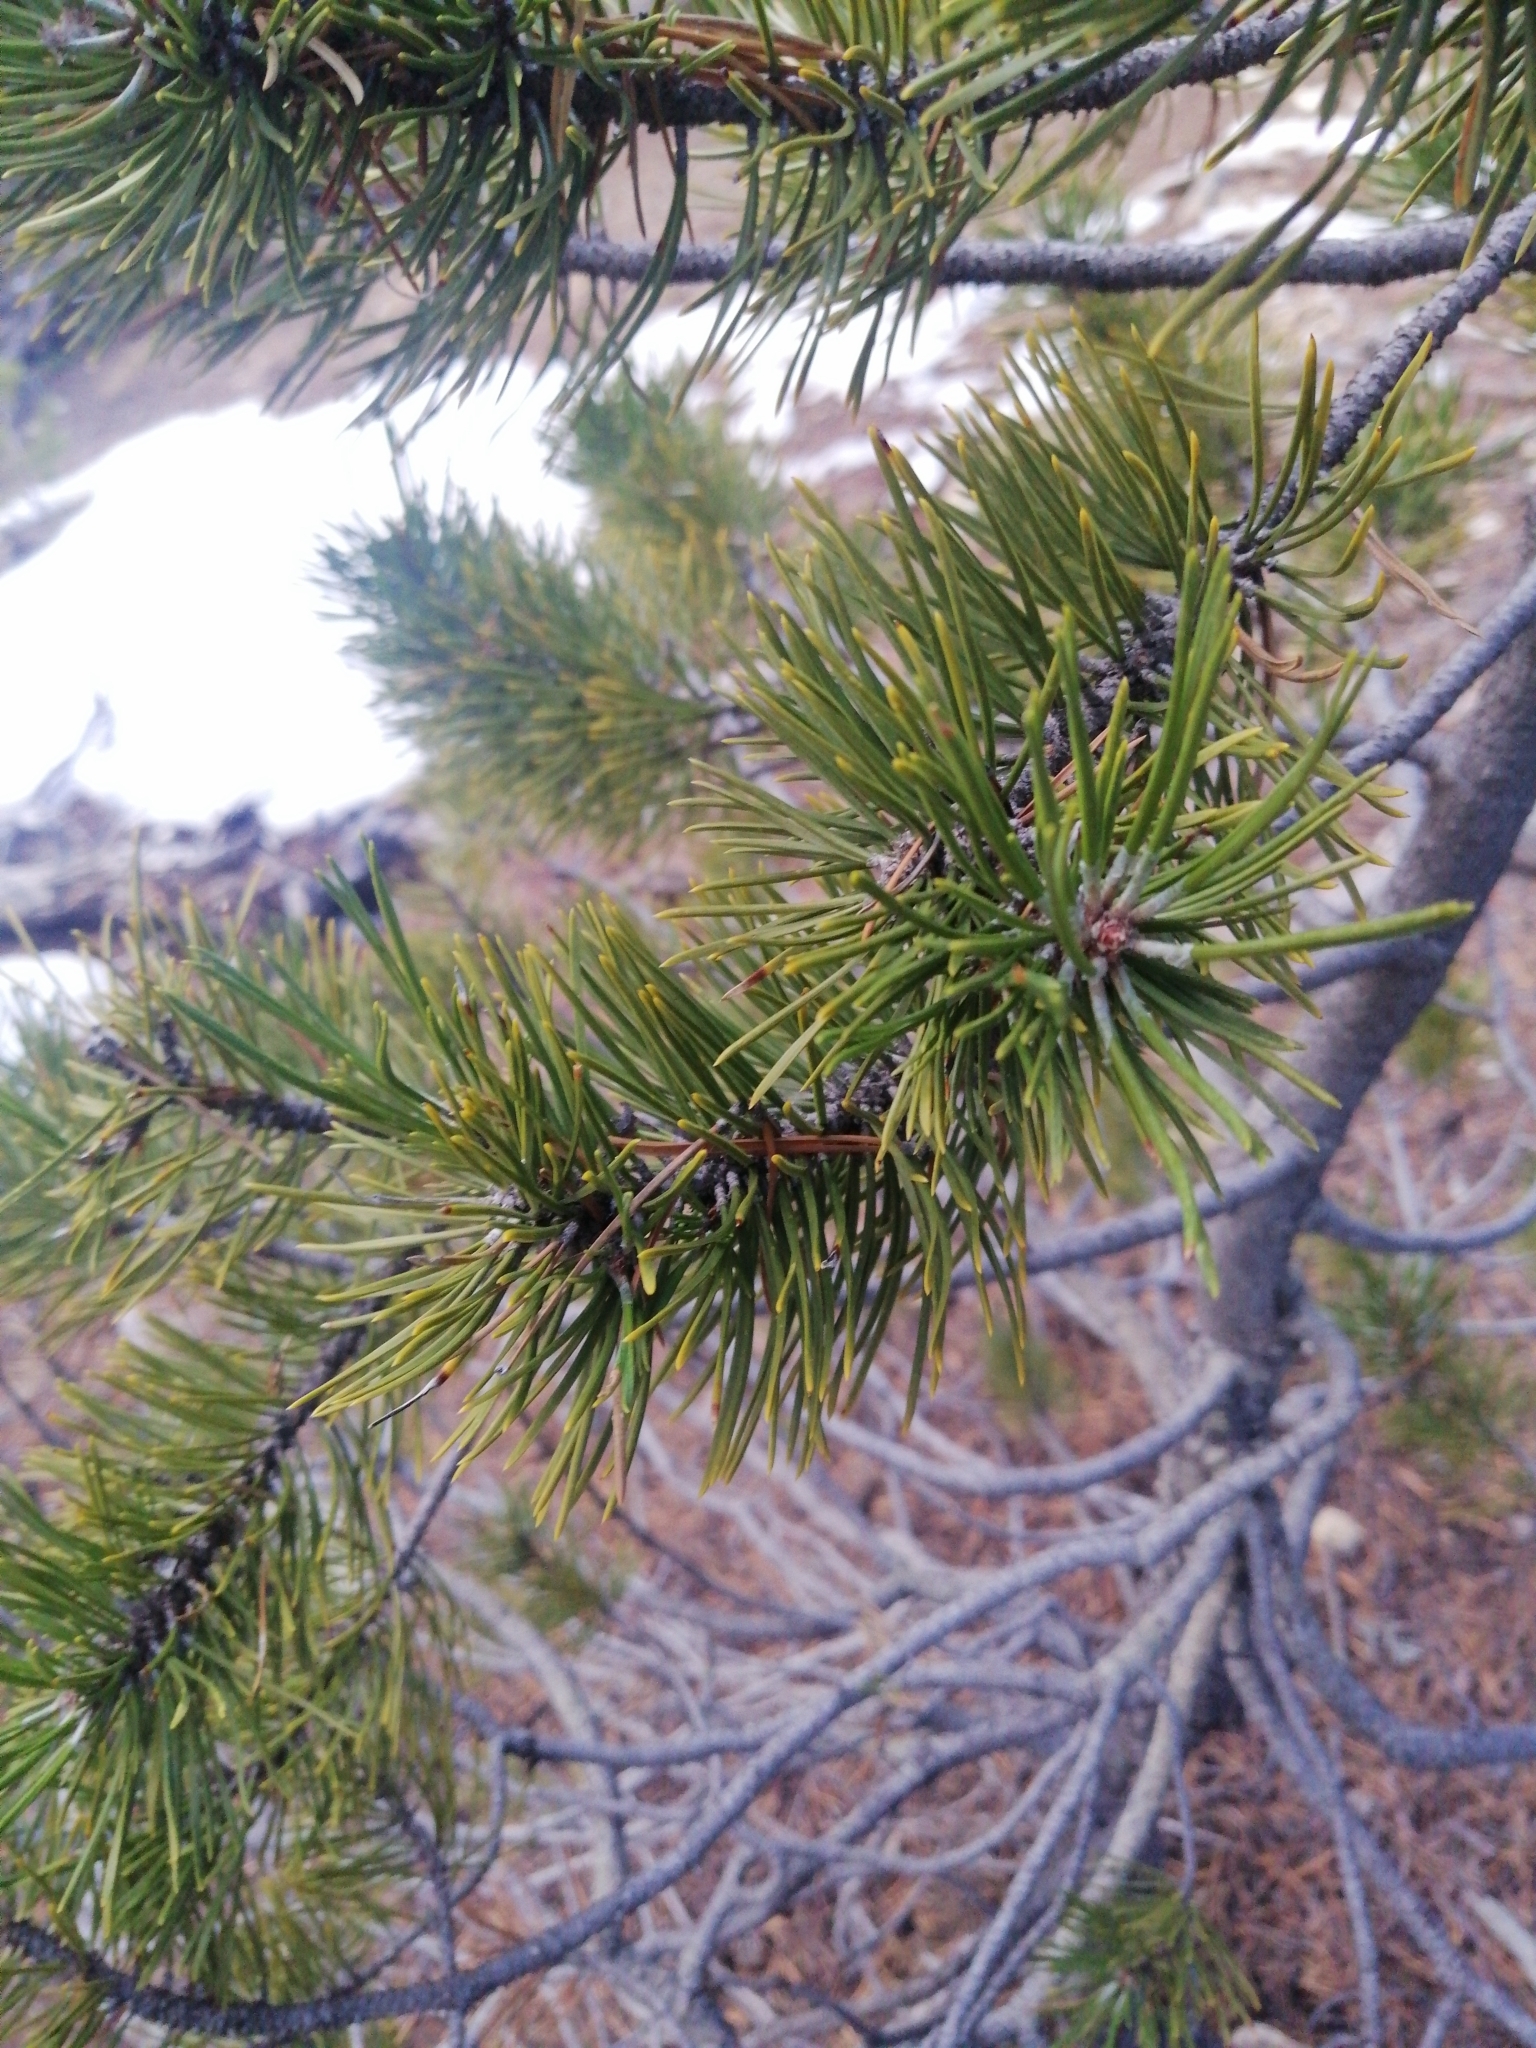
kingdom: Plantae
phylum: Tracheophyta
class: Pinopsida
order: Pinales
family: Pinaceae
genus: Pinus
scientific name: Pinus uncinata
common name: Mountain pine
